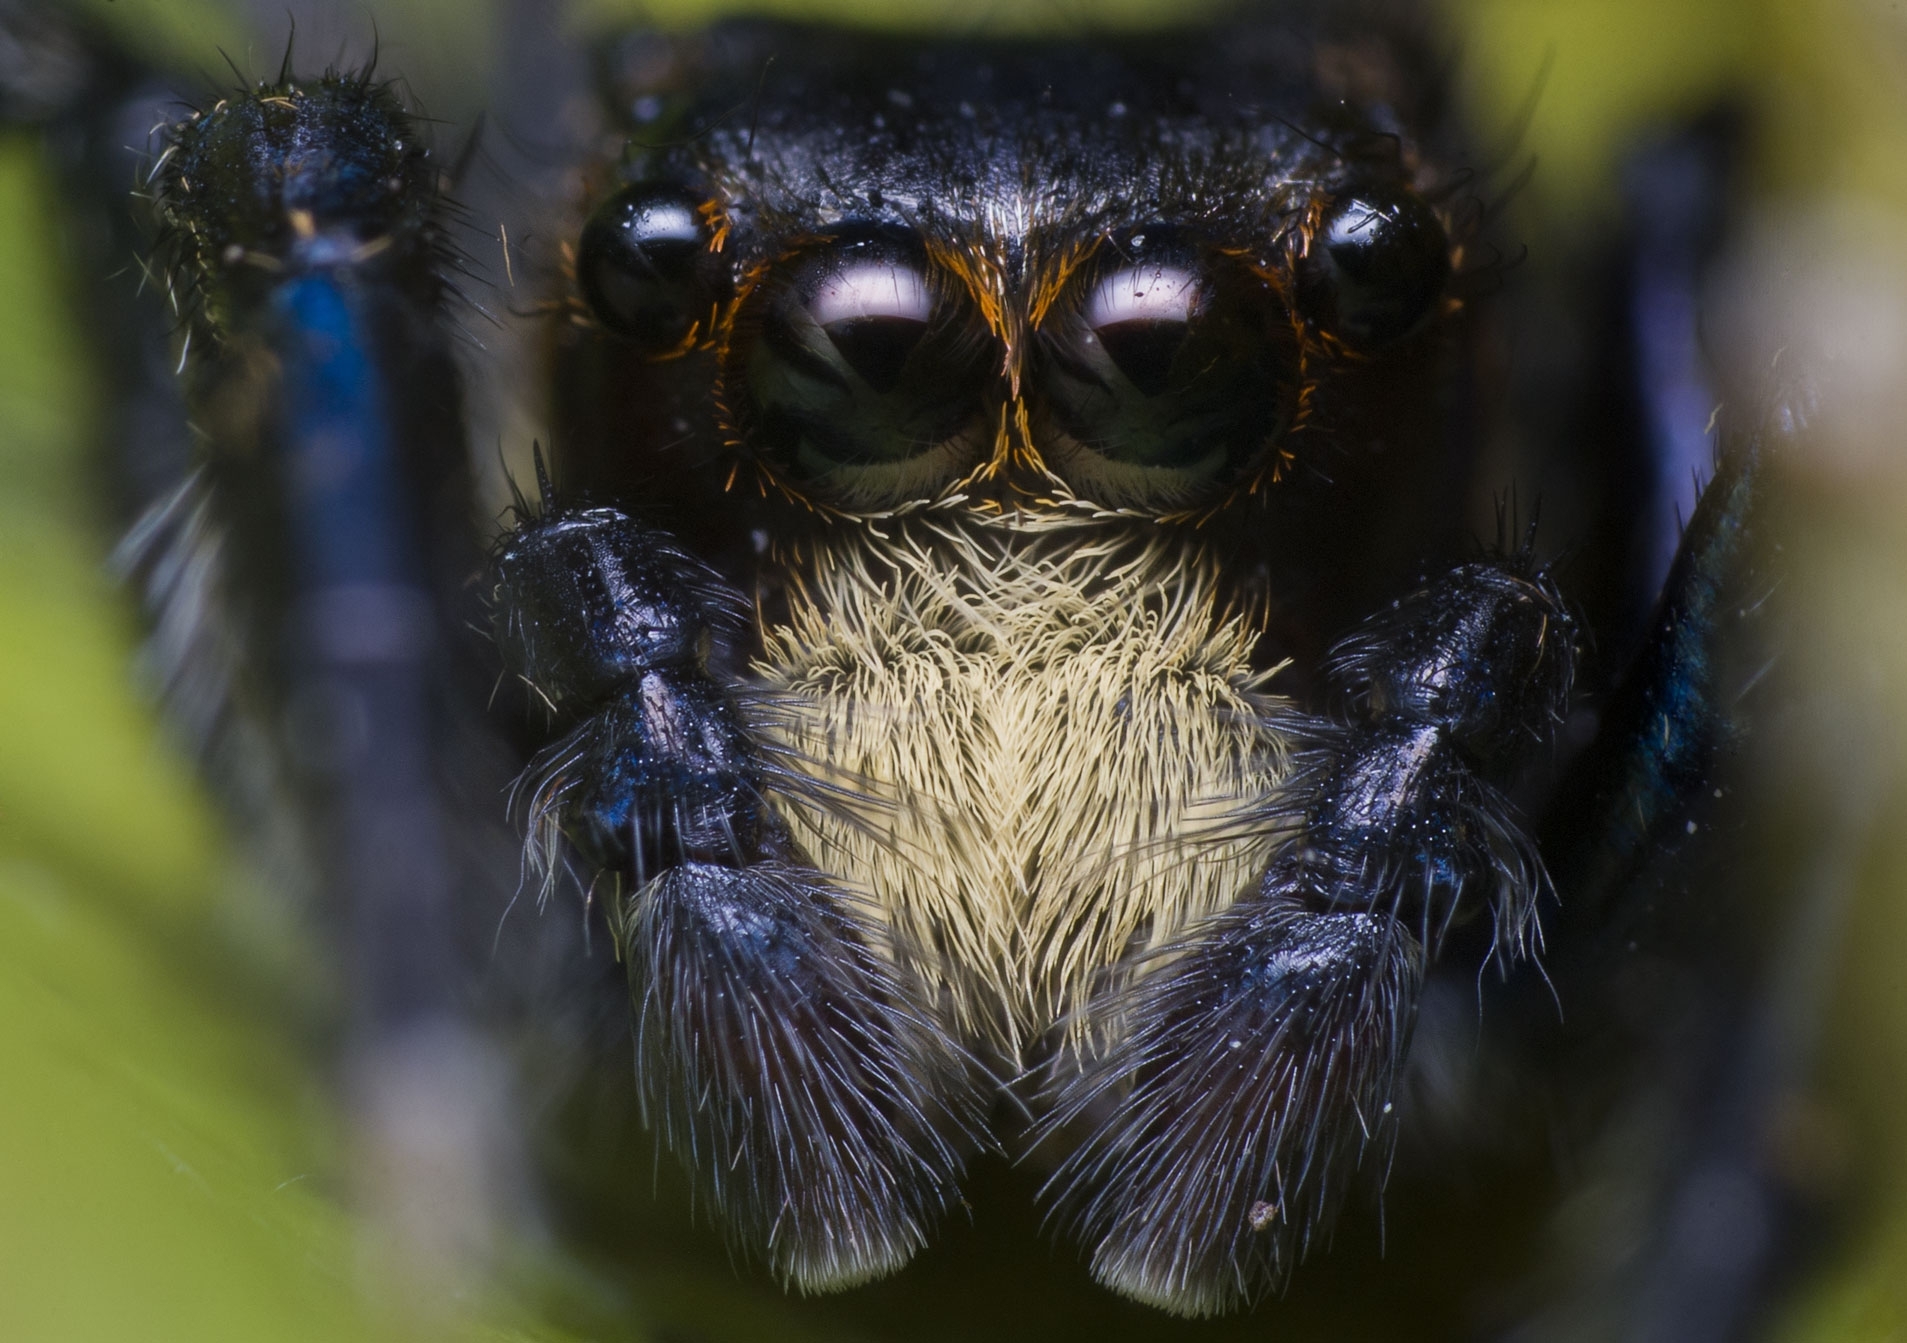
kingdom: Animalia
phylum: Arthropoda
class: Arachnida
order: Araneae
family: Salticidae
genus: Triggella
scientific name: Triggella infuscata
